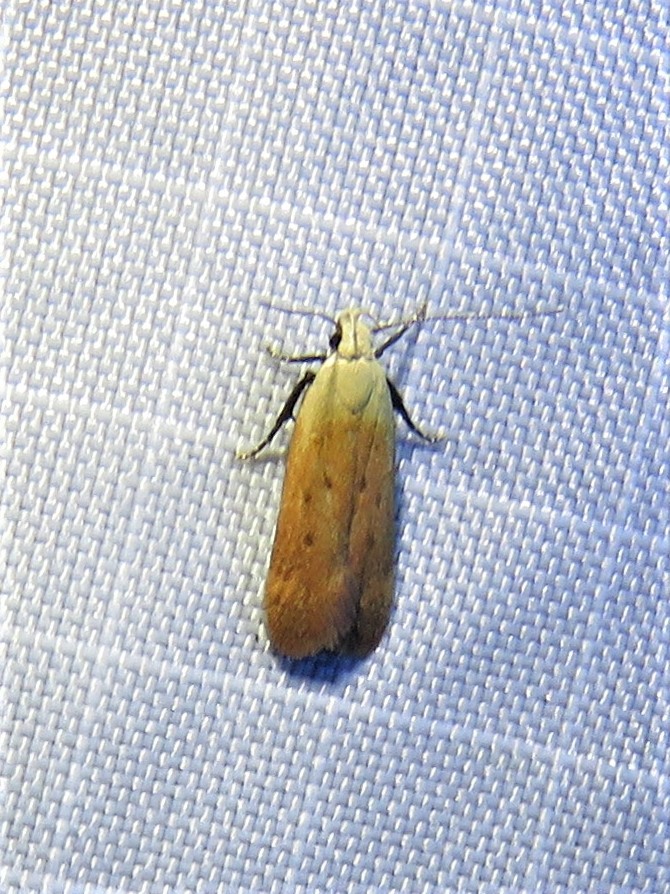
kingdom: Animalia
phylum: Arthropoda
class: Insecta
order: Lepidoptera
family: Gelechiidae
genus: Anacampsis
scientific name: Anacampsis fullonella
